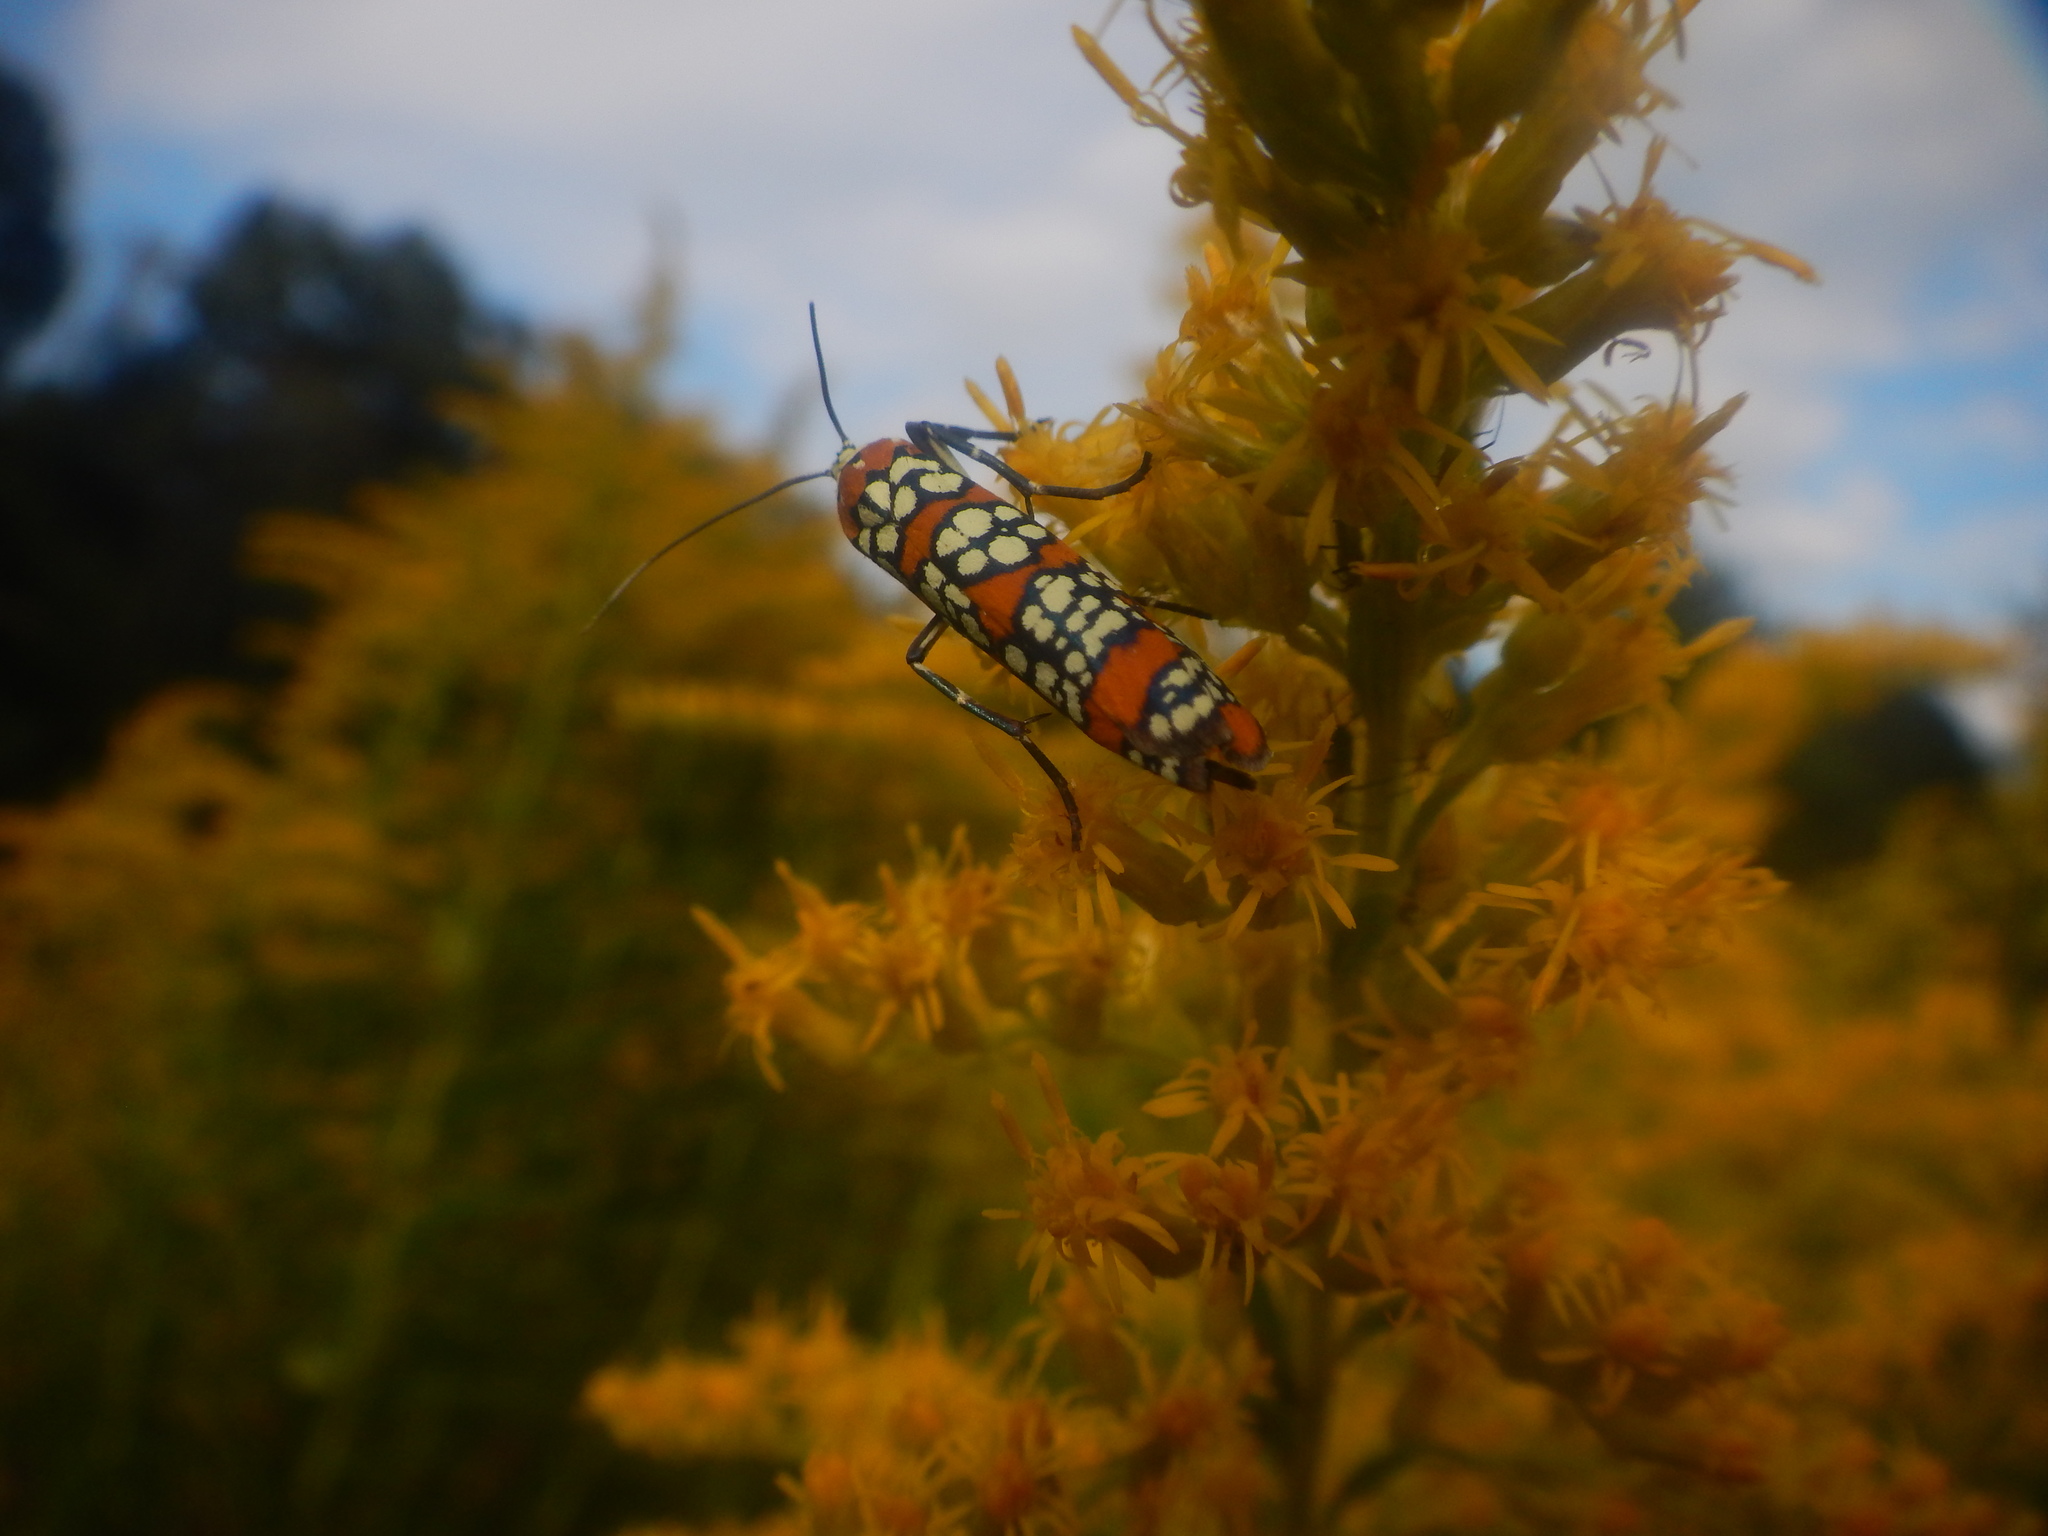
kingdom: Animalia
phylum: Arthropoda
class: Insecta
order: Lepidoptera
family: Attevidae
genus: Atteva
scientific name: Atteva punctella
